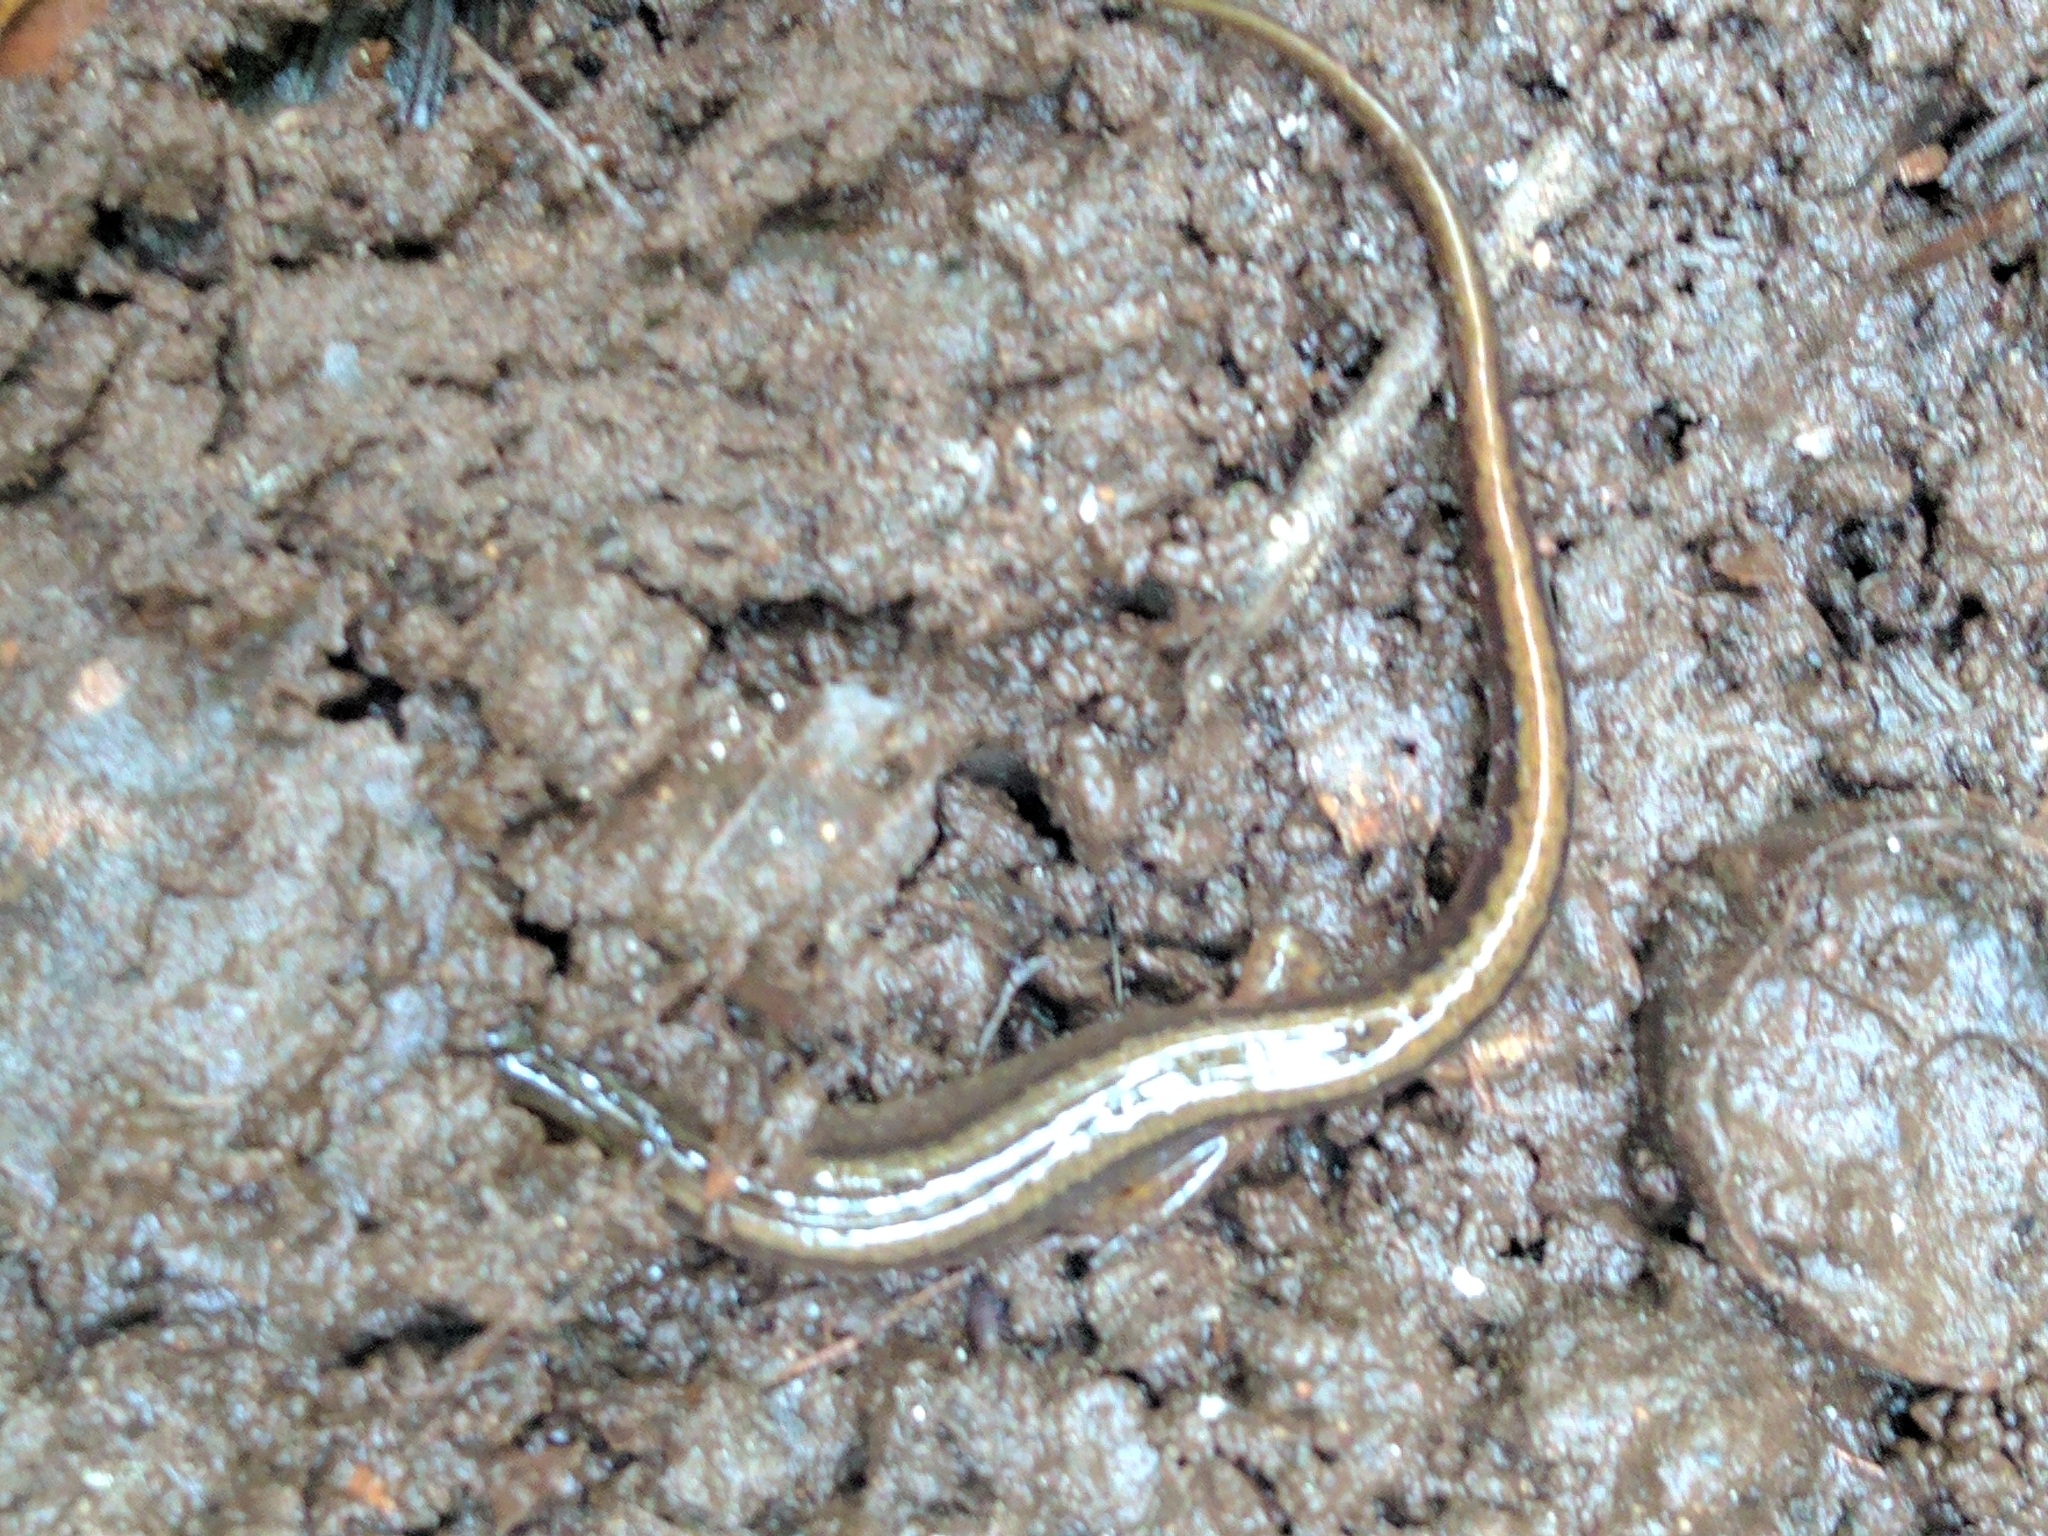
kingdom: Animalia
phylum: Chordata
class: Amphibia
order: Caudata
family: Plethodontidae
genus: Eurycea
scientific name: Eurycea bislineata
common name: Northern two-lined salamander
